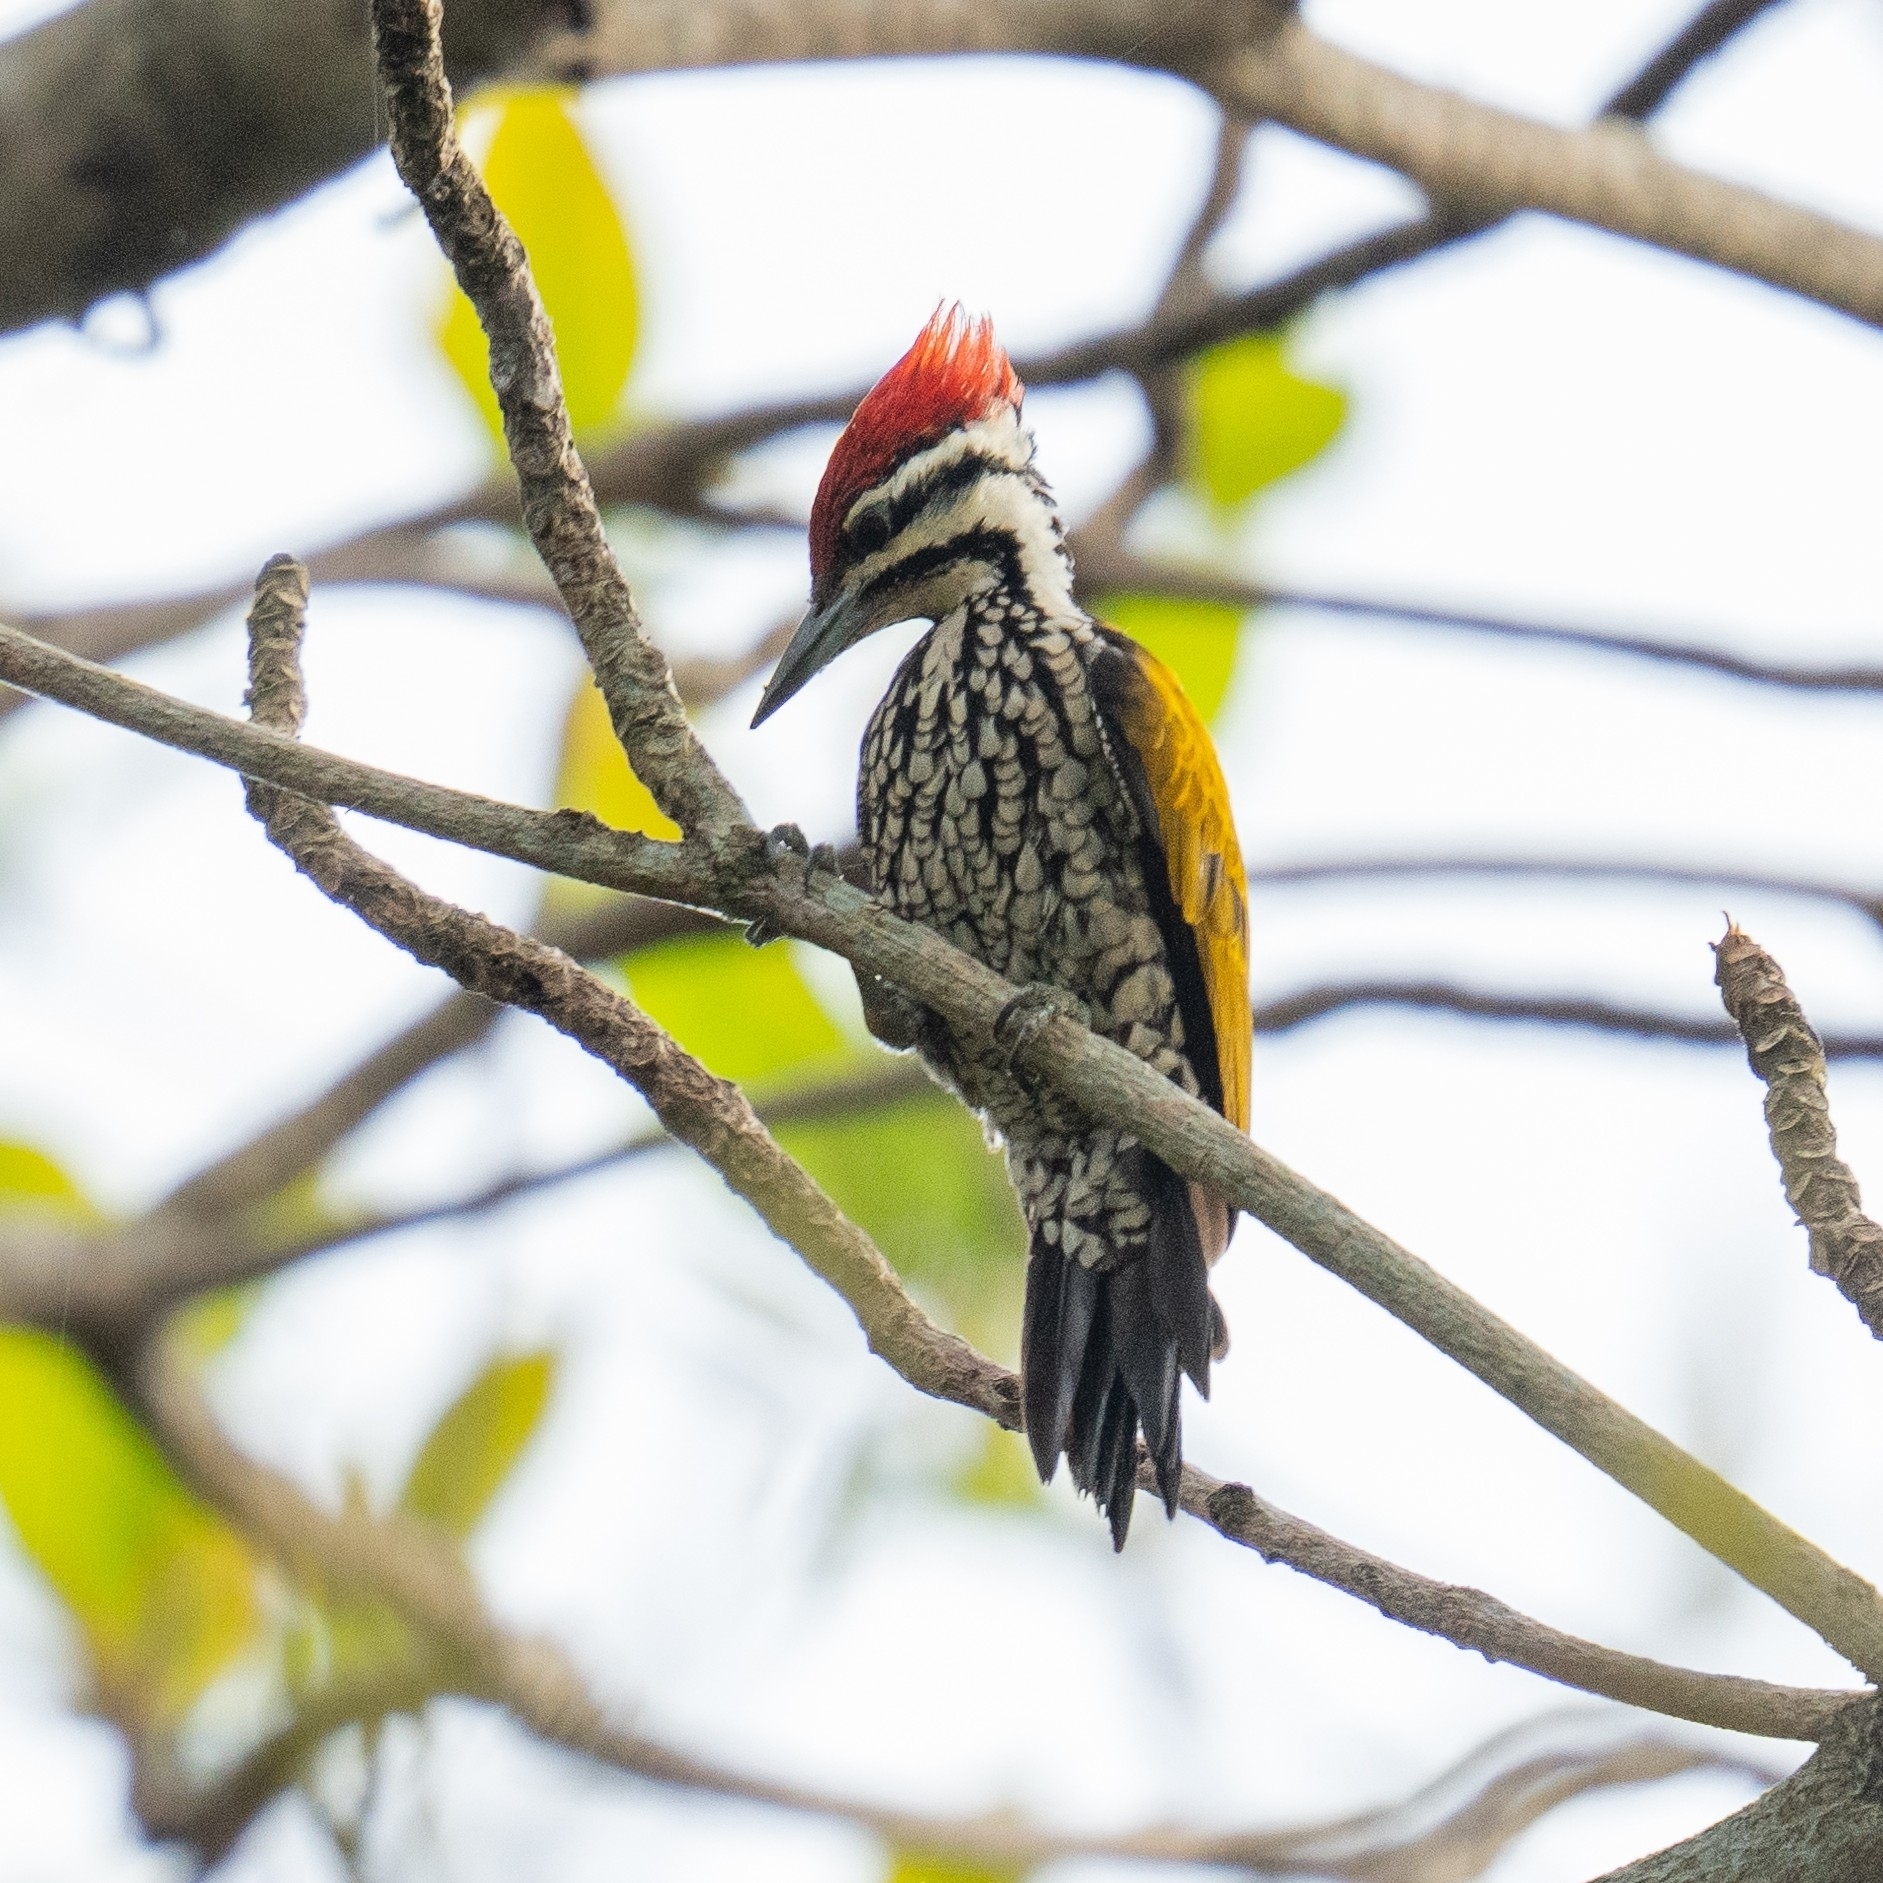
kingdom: Animalia
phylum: Chordata
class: Aves
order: Piciformes
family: Picidae
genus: Dinopium
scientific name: Dinopium javanense
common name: Common flameback
